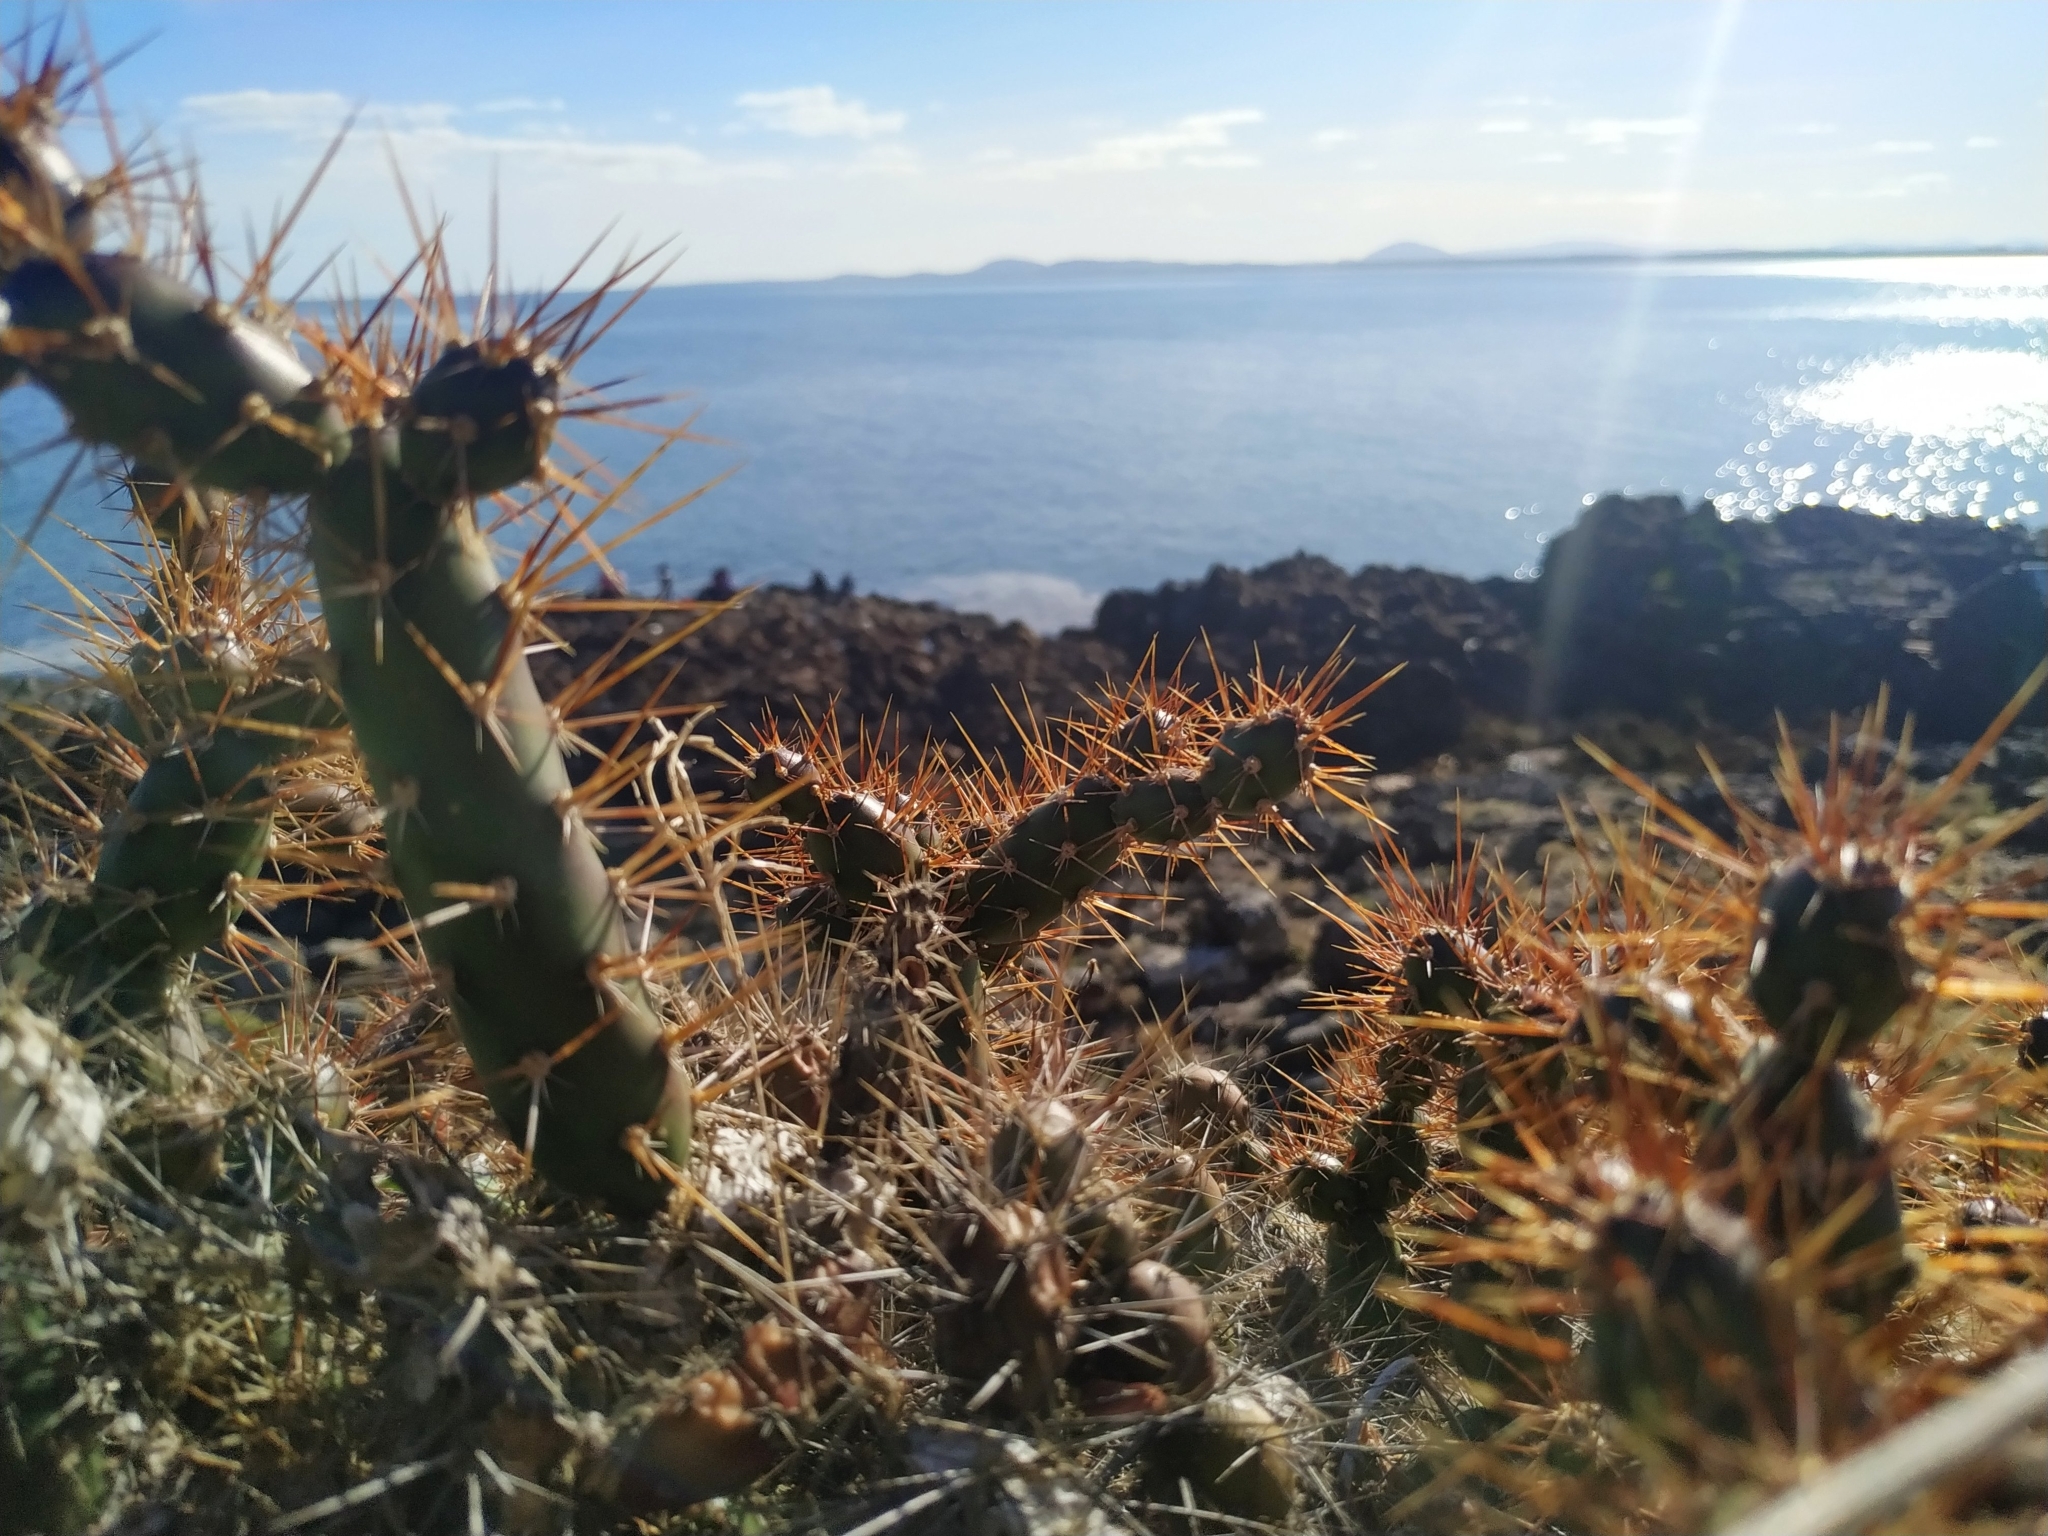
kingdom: Plantae
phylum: Tracheophyta
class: Magnoliopsida
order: Caryophyllales
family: Cactaceae
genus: Opuntia
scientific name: Opuntia aurantiaca
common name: Jointed pricklypear
